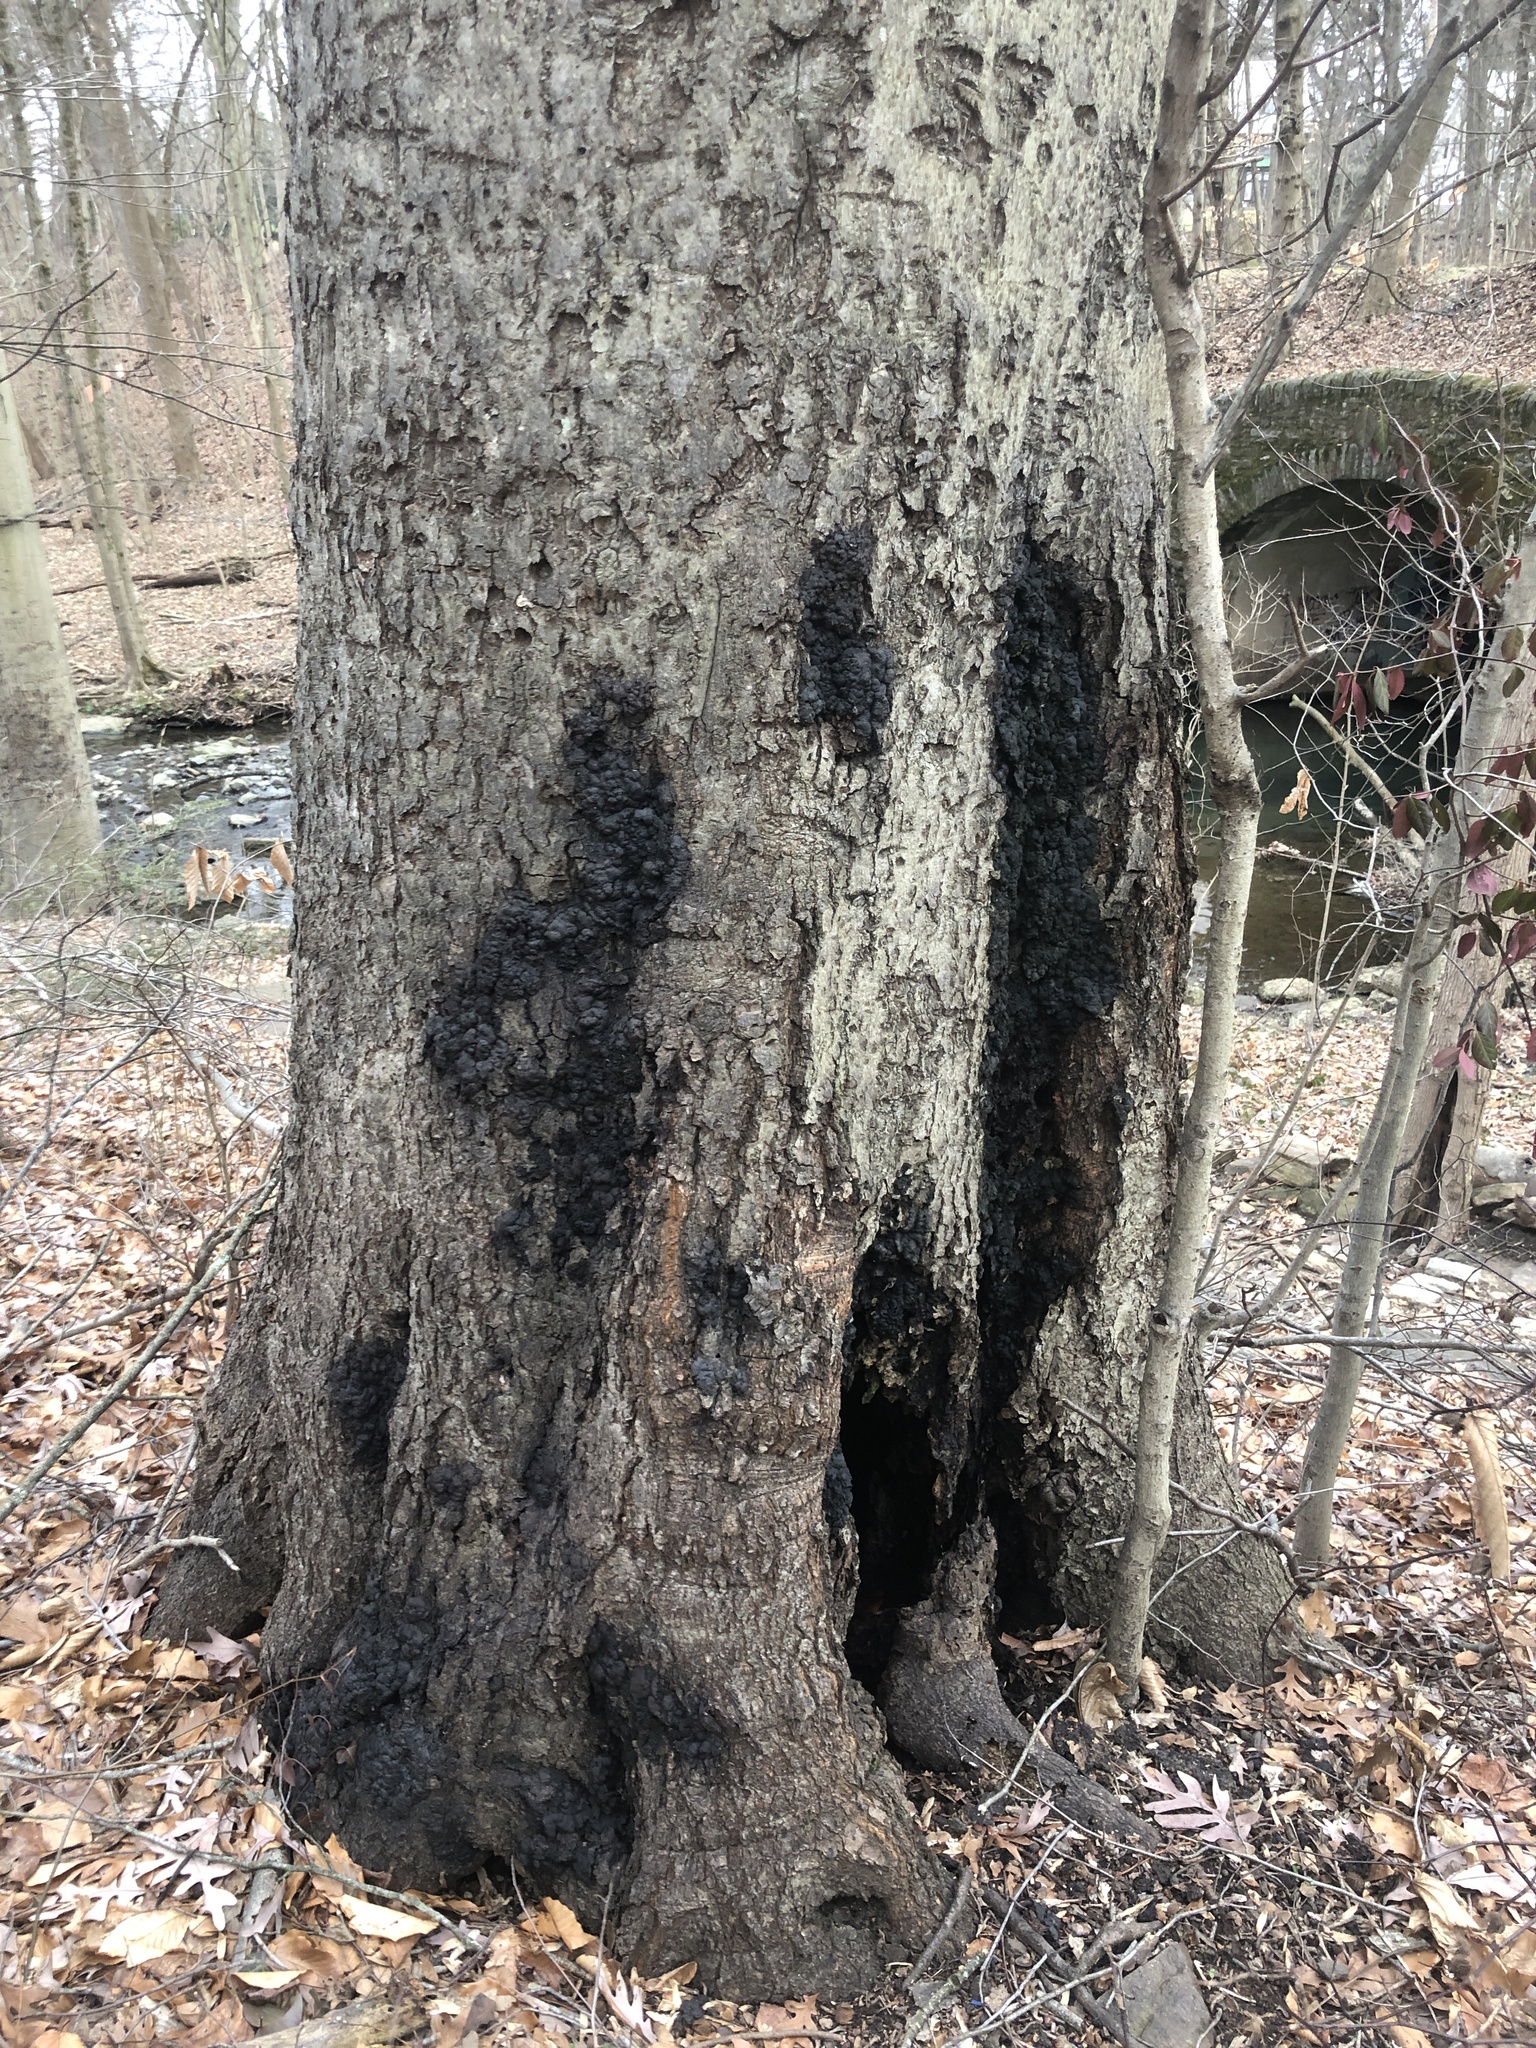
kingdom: Fungi
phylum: Ascomycota
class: Sordariomycetes
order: Xylariales
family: Xylariaceae
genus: Kretzschmaria
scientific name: Kretzschmaria deusta
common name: Brittle cinder
